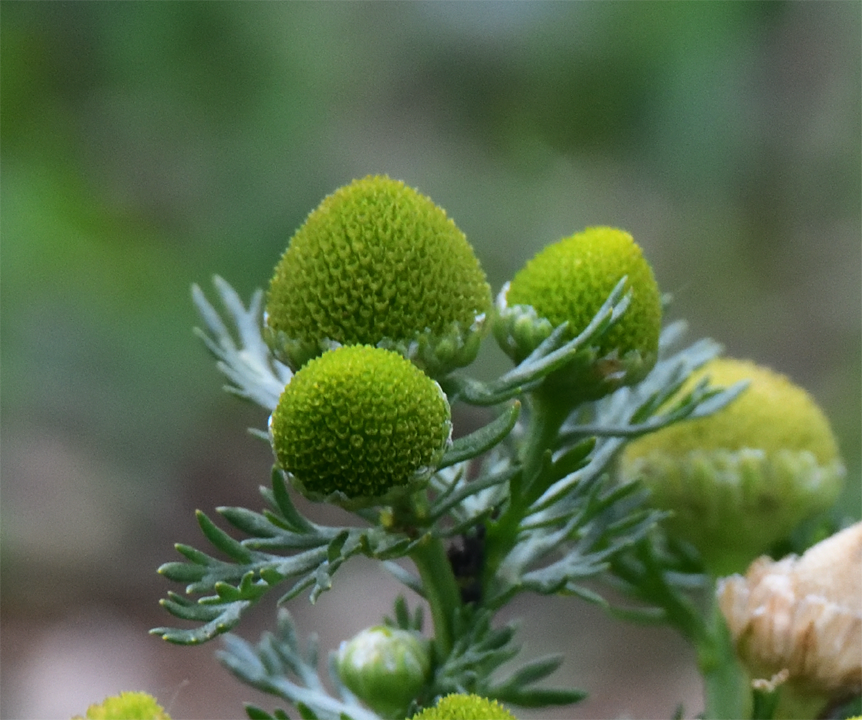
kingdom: Plantae
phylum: Tracheophyta
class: Magnoliopsida
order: Asterales
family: Asteraceae
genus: Matricaria
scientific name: Matricaria discoidea
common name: Disc mayweed
